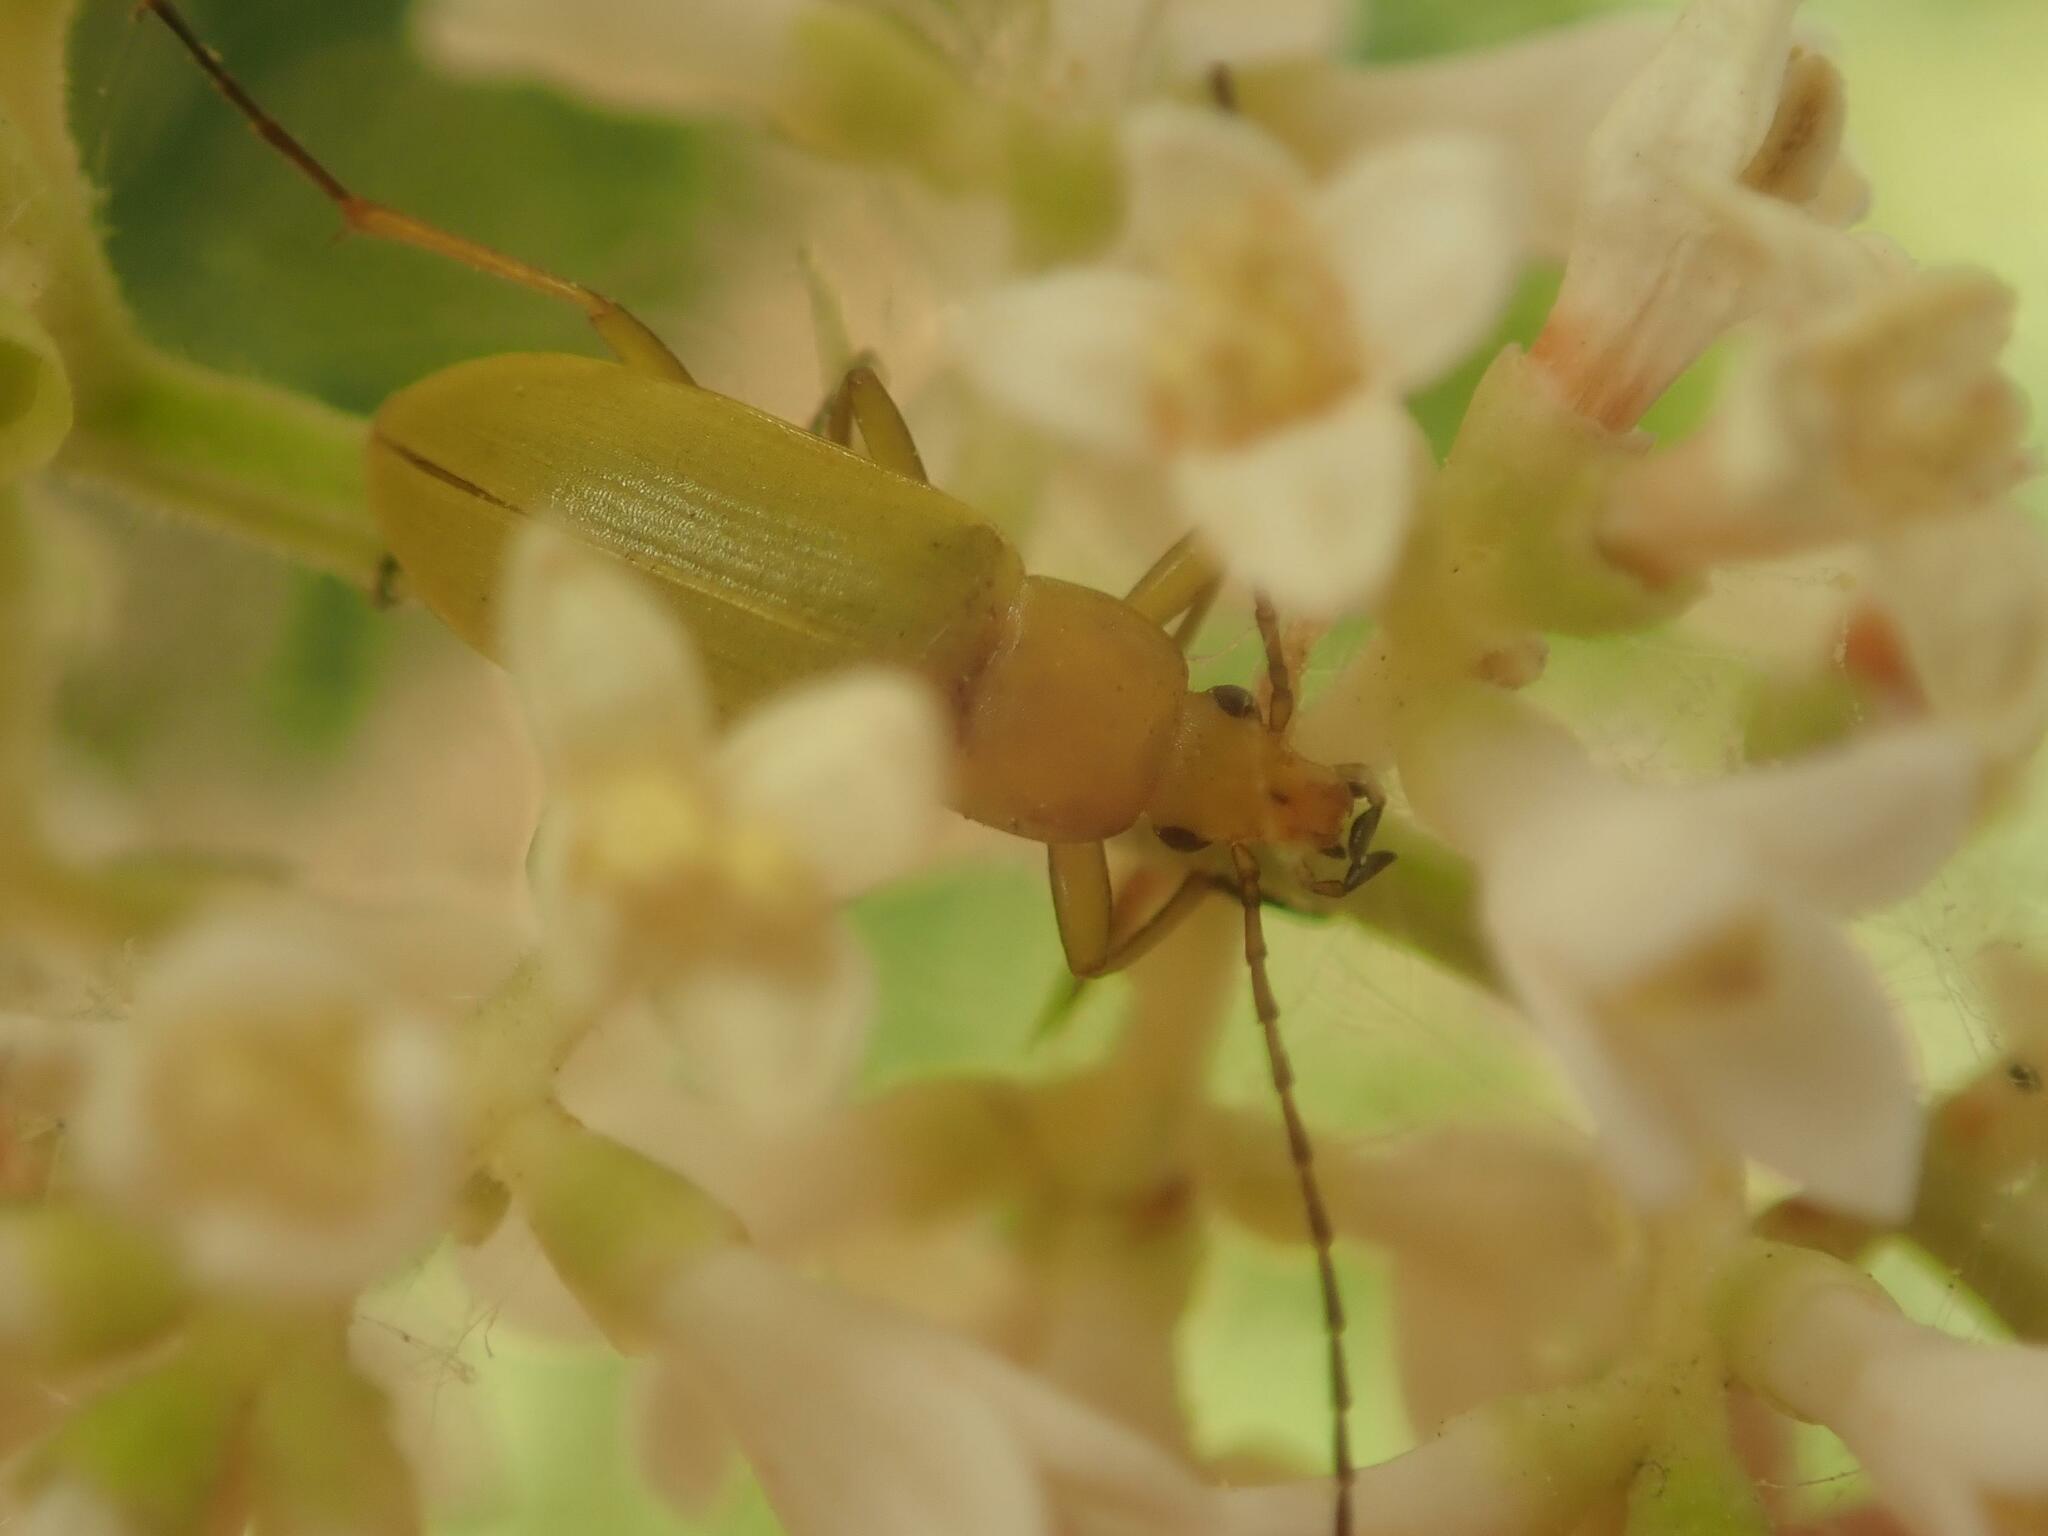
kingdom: Animalia
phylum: Arthropoda
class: Insecta
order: Coleoptera
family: Tenebrionidae
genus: Cteniopus
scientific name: Cteniopus sulphureus
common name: Sulphur beetle
